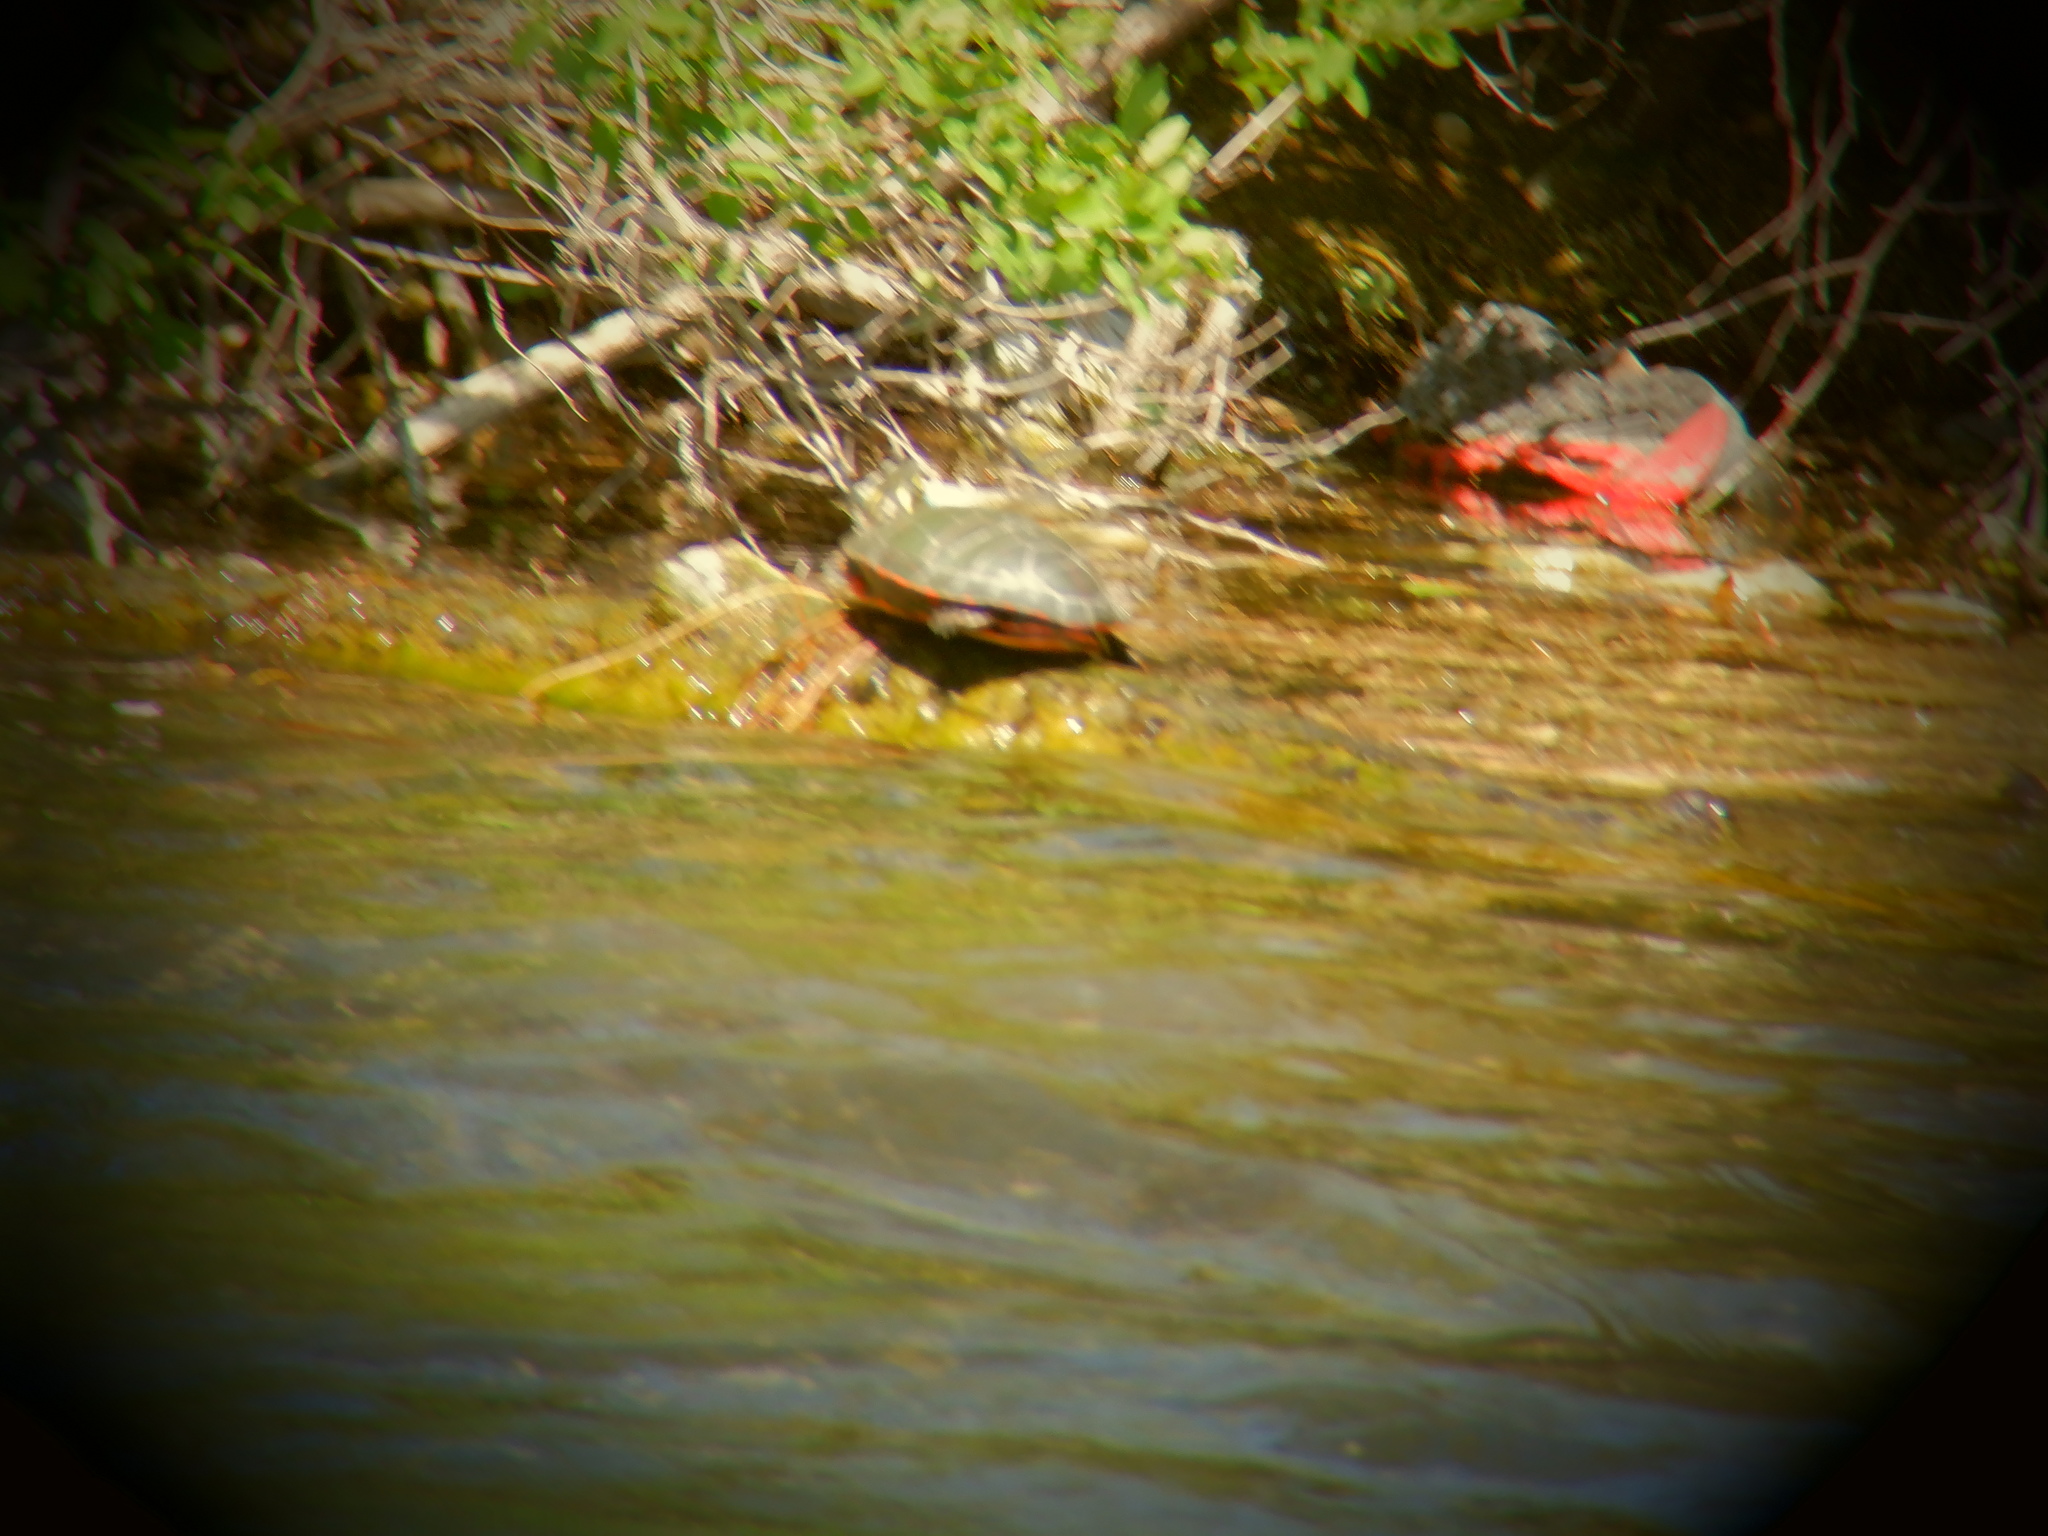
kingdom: Animalia
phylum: Chordata
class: Testudines
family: Emydidae
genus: Chrysemys
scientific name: Chrysemys picta
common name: Painted turtle
